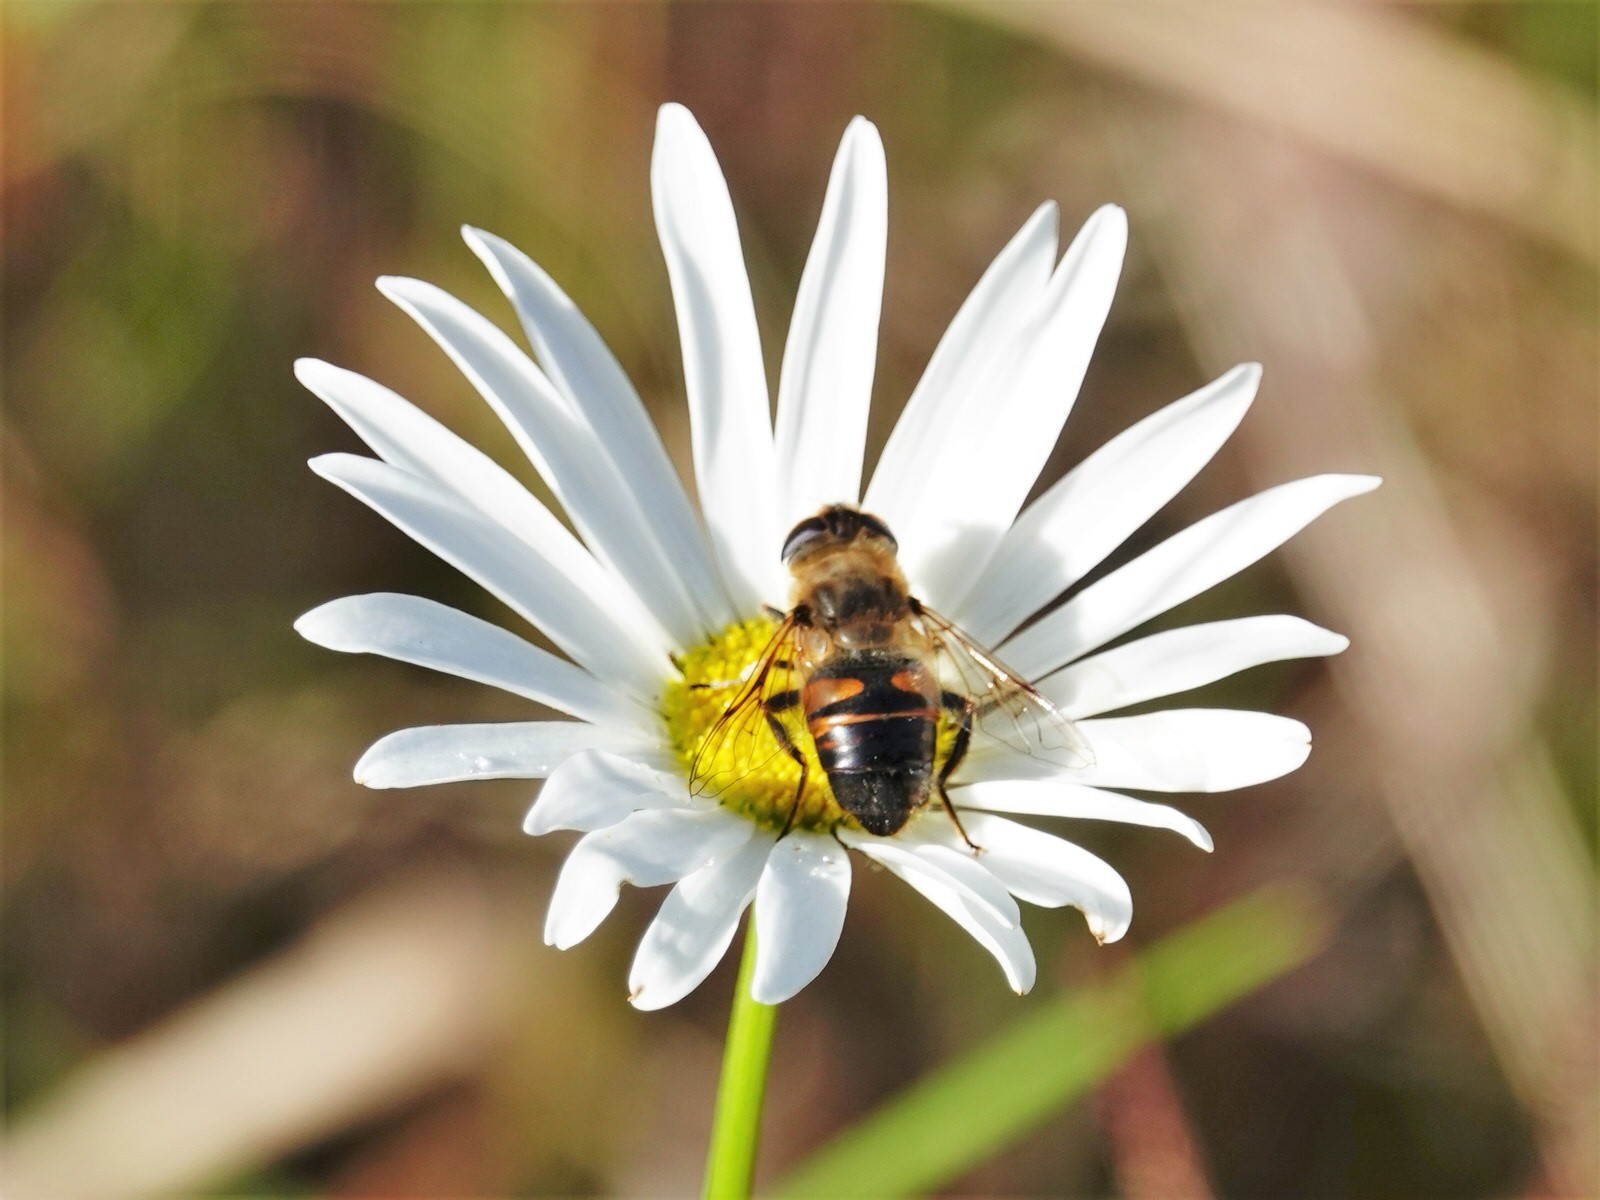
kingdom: Animalia
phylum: Arthropoda
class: Insecta
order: Diptera
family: Syrphidae
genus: Eristalis
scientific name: Eristalis tenax
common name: Drone fly
